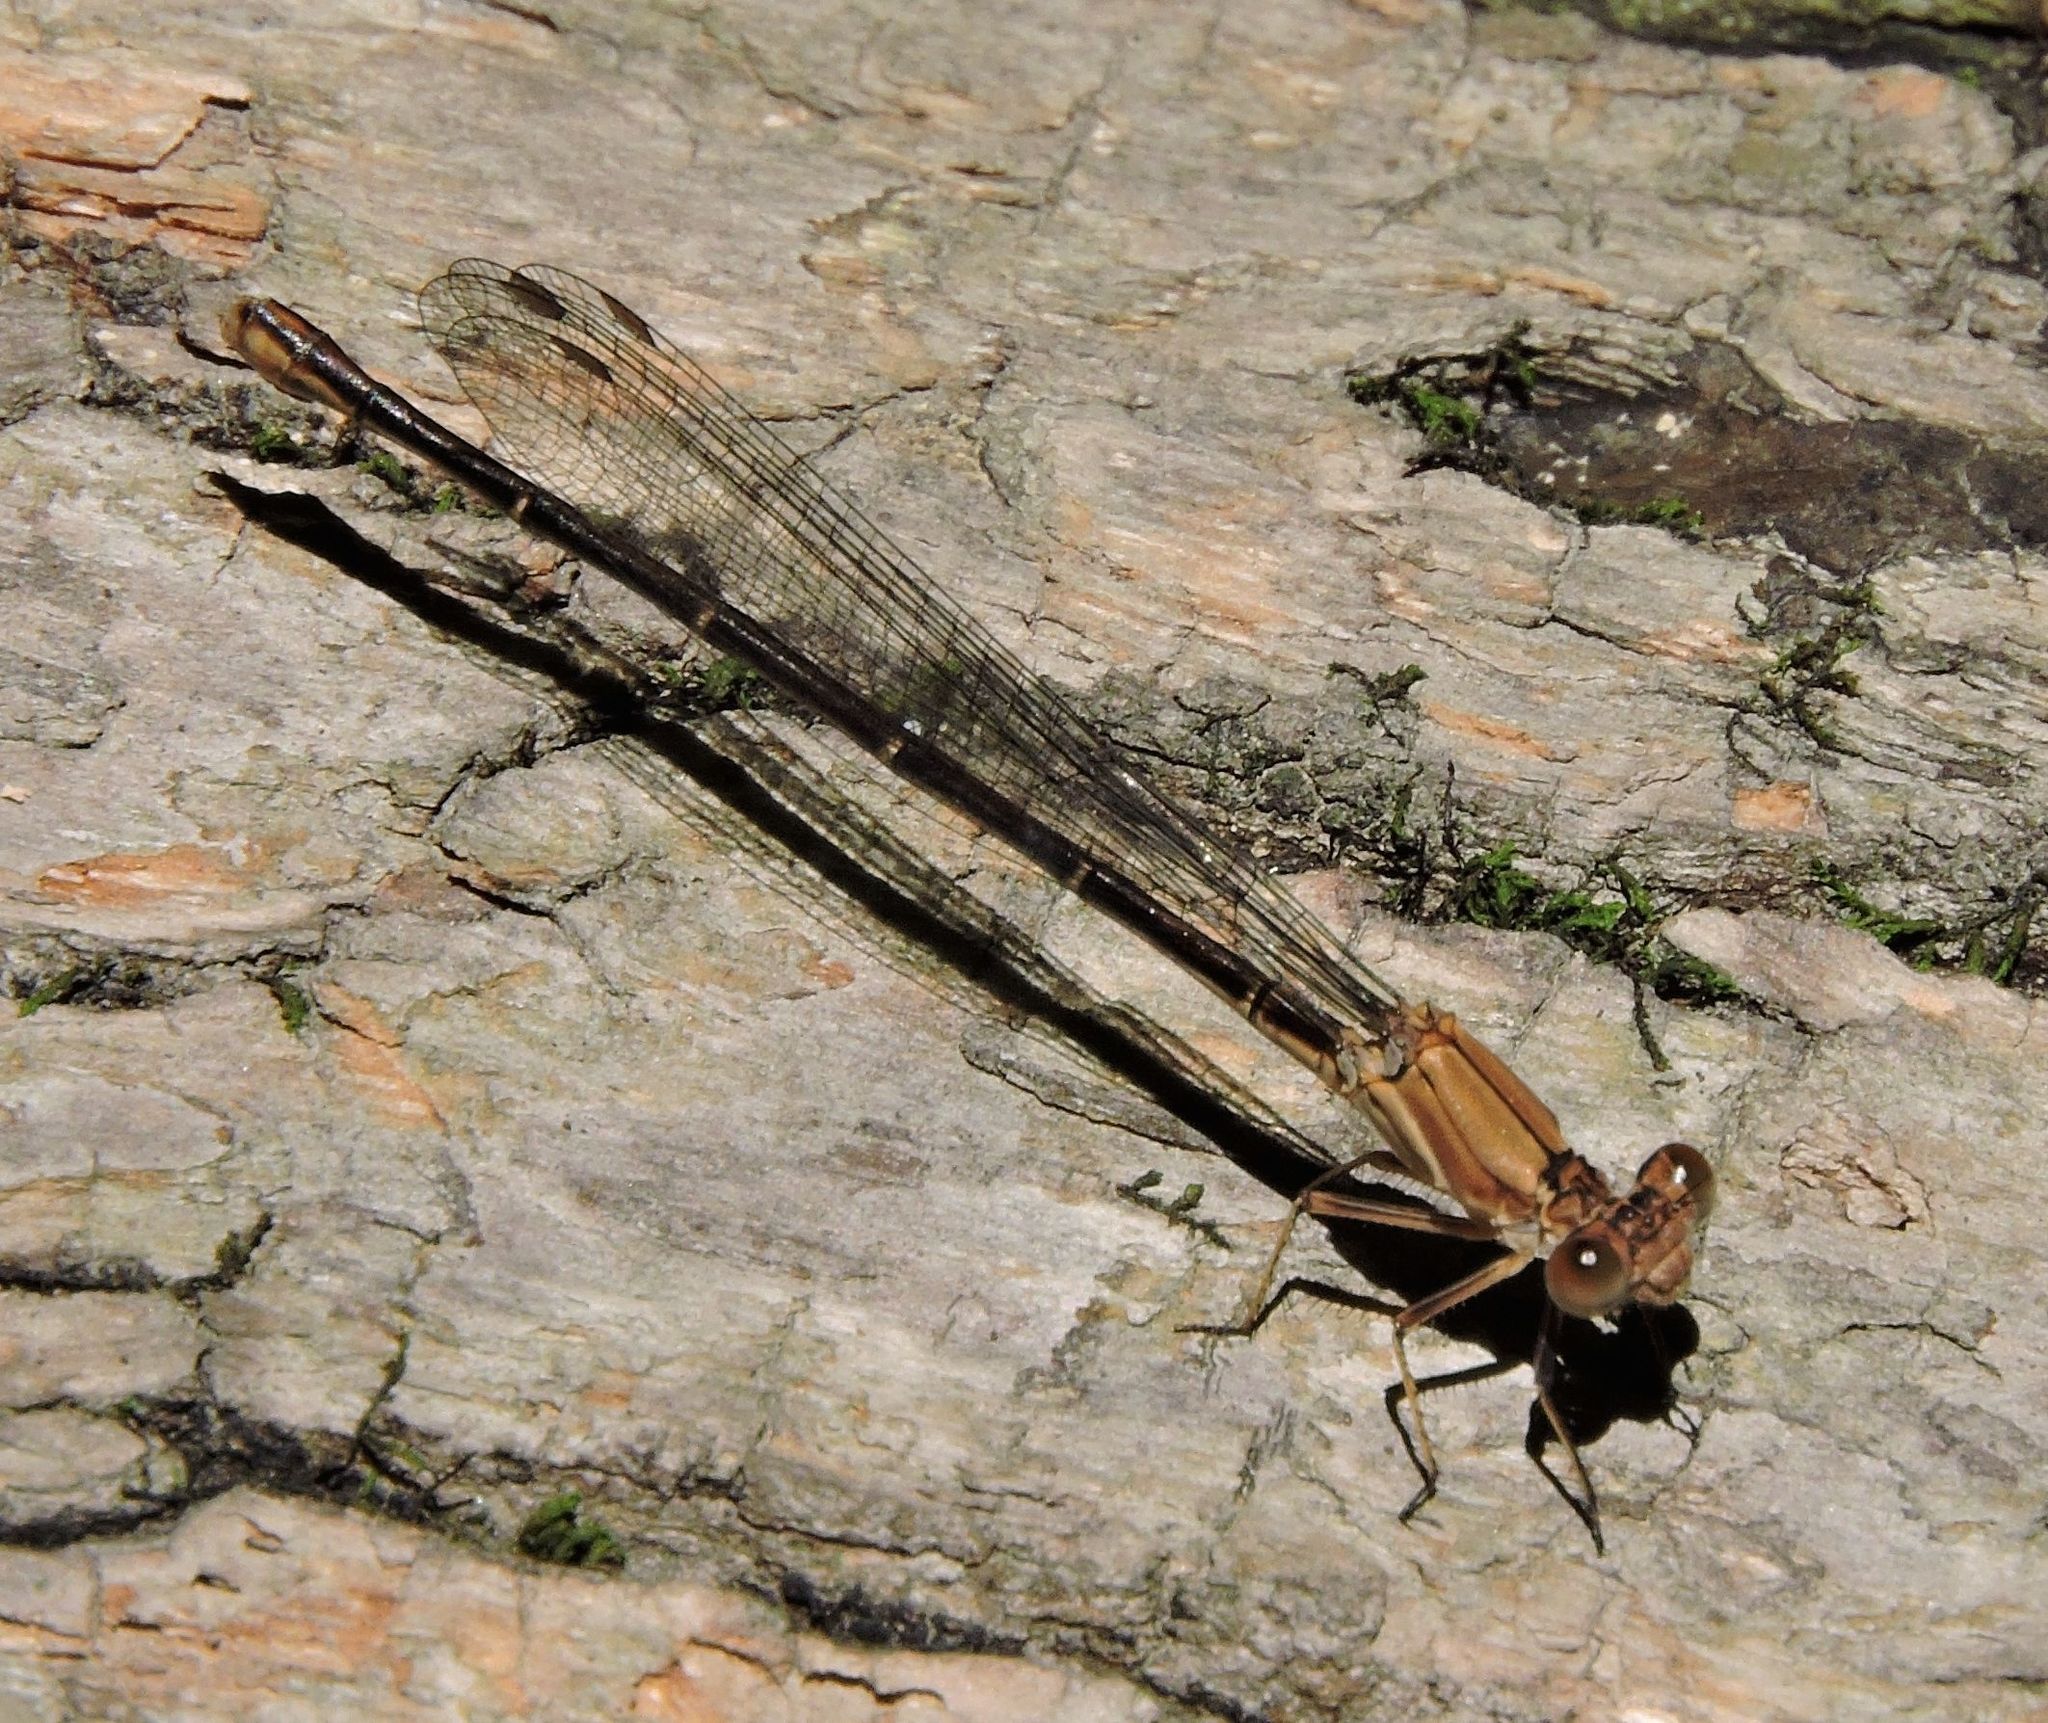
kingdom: Animalia
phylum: Arthropoda
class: Insecta
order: Odonata
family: Coenagrionidae
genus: Argia
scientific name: Argia moesta
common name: Powdered dancer
